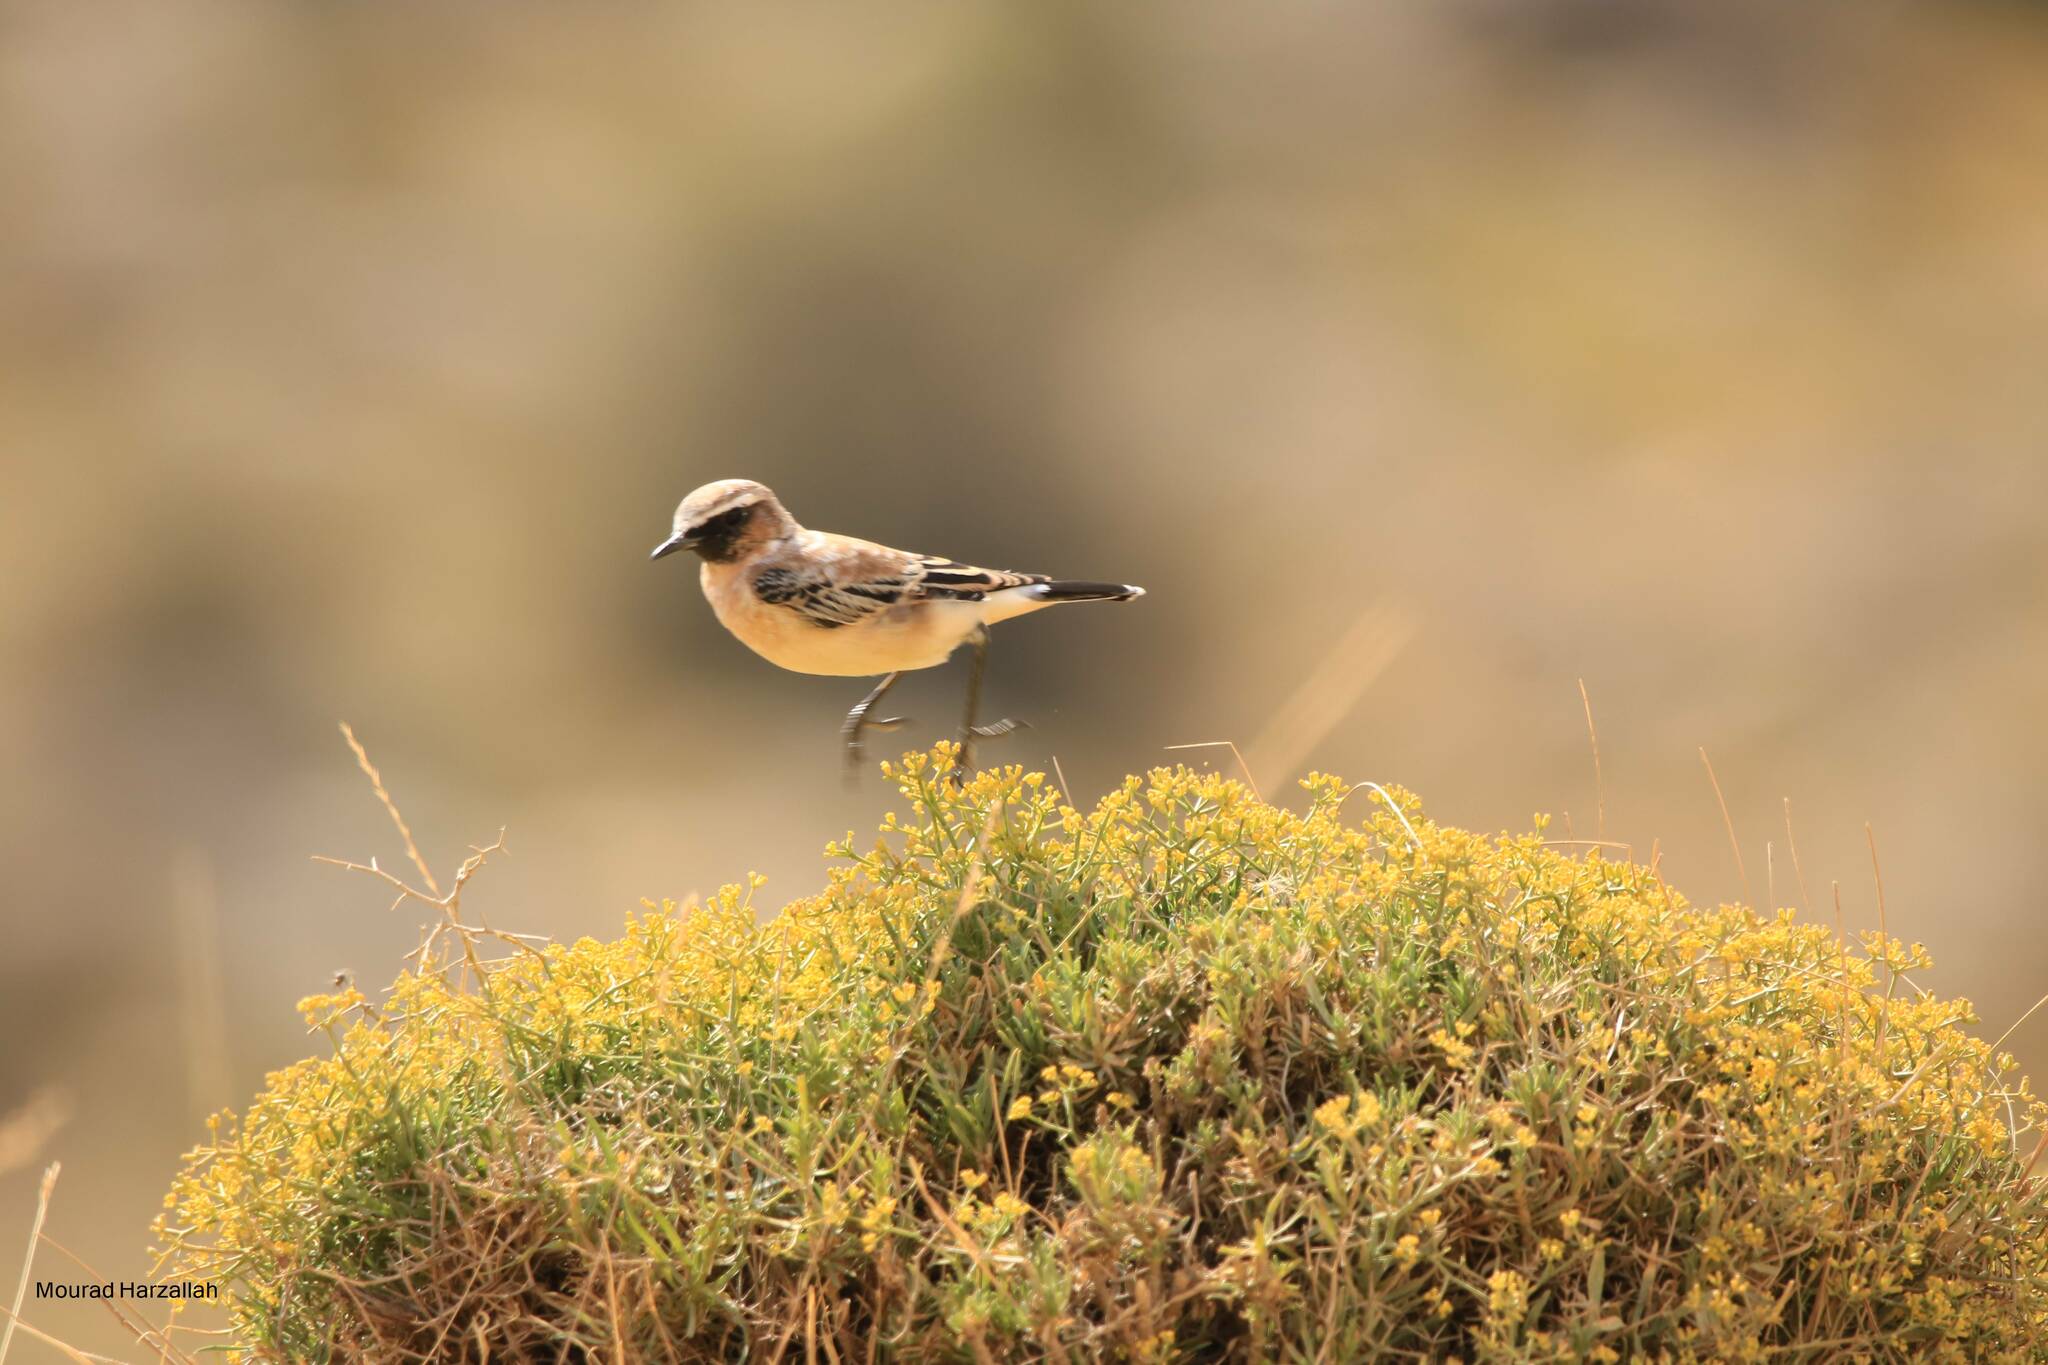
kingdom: Animalia
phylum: Chordata
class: Aves
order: Passeriformes
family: Muscicapidae
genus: Oenanthe
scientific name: Oenanthe oenanthe
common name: Northern wheatear
